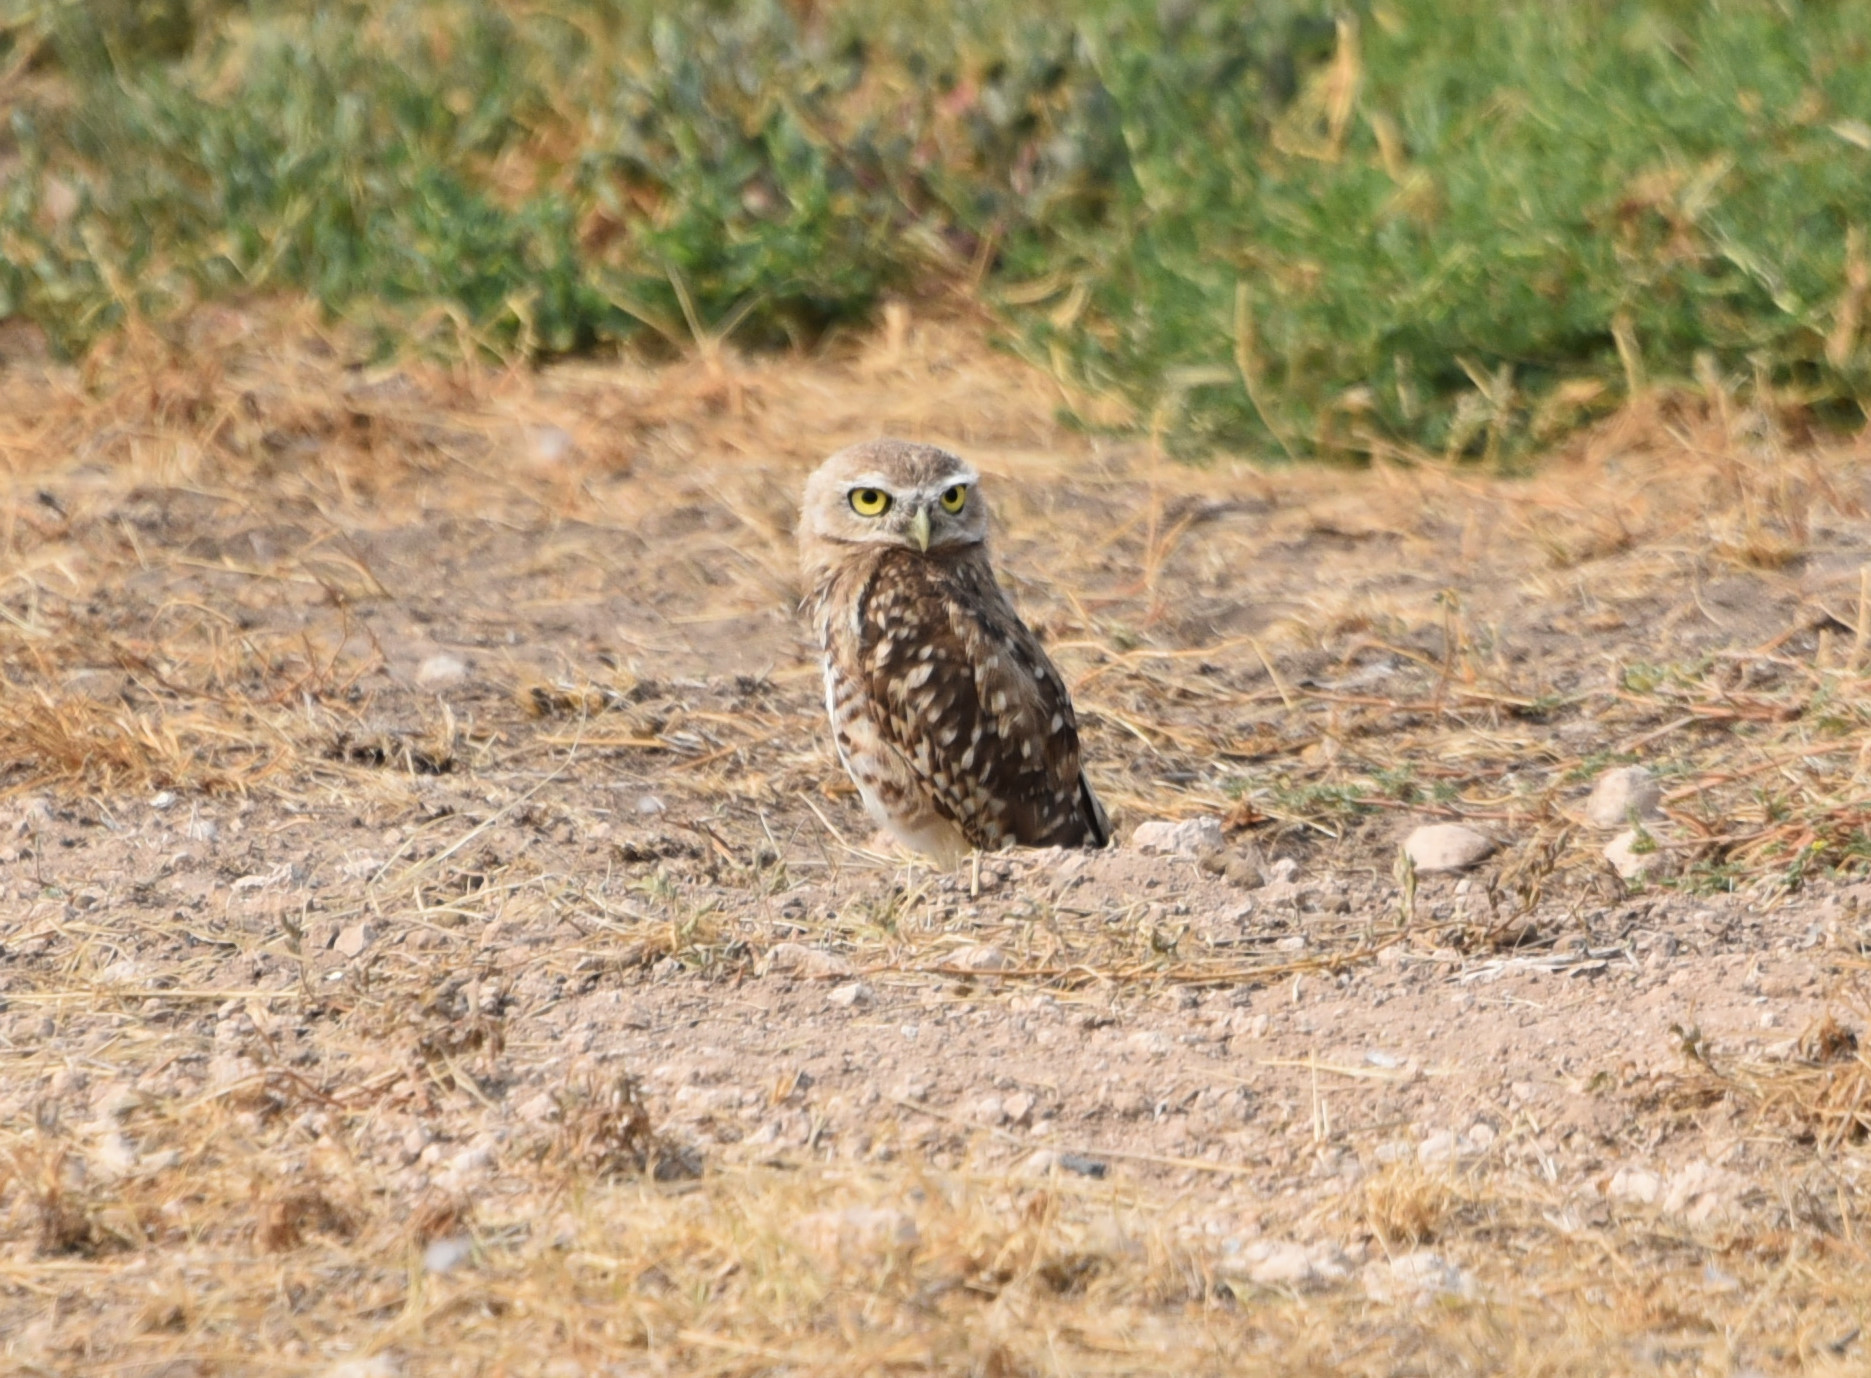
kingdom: Animalia
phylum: Chordata
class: Aves
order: Strigiformes
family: Strigidae
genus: Athene
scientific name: Athene cunicularia
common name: Burrowing owl
